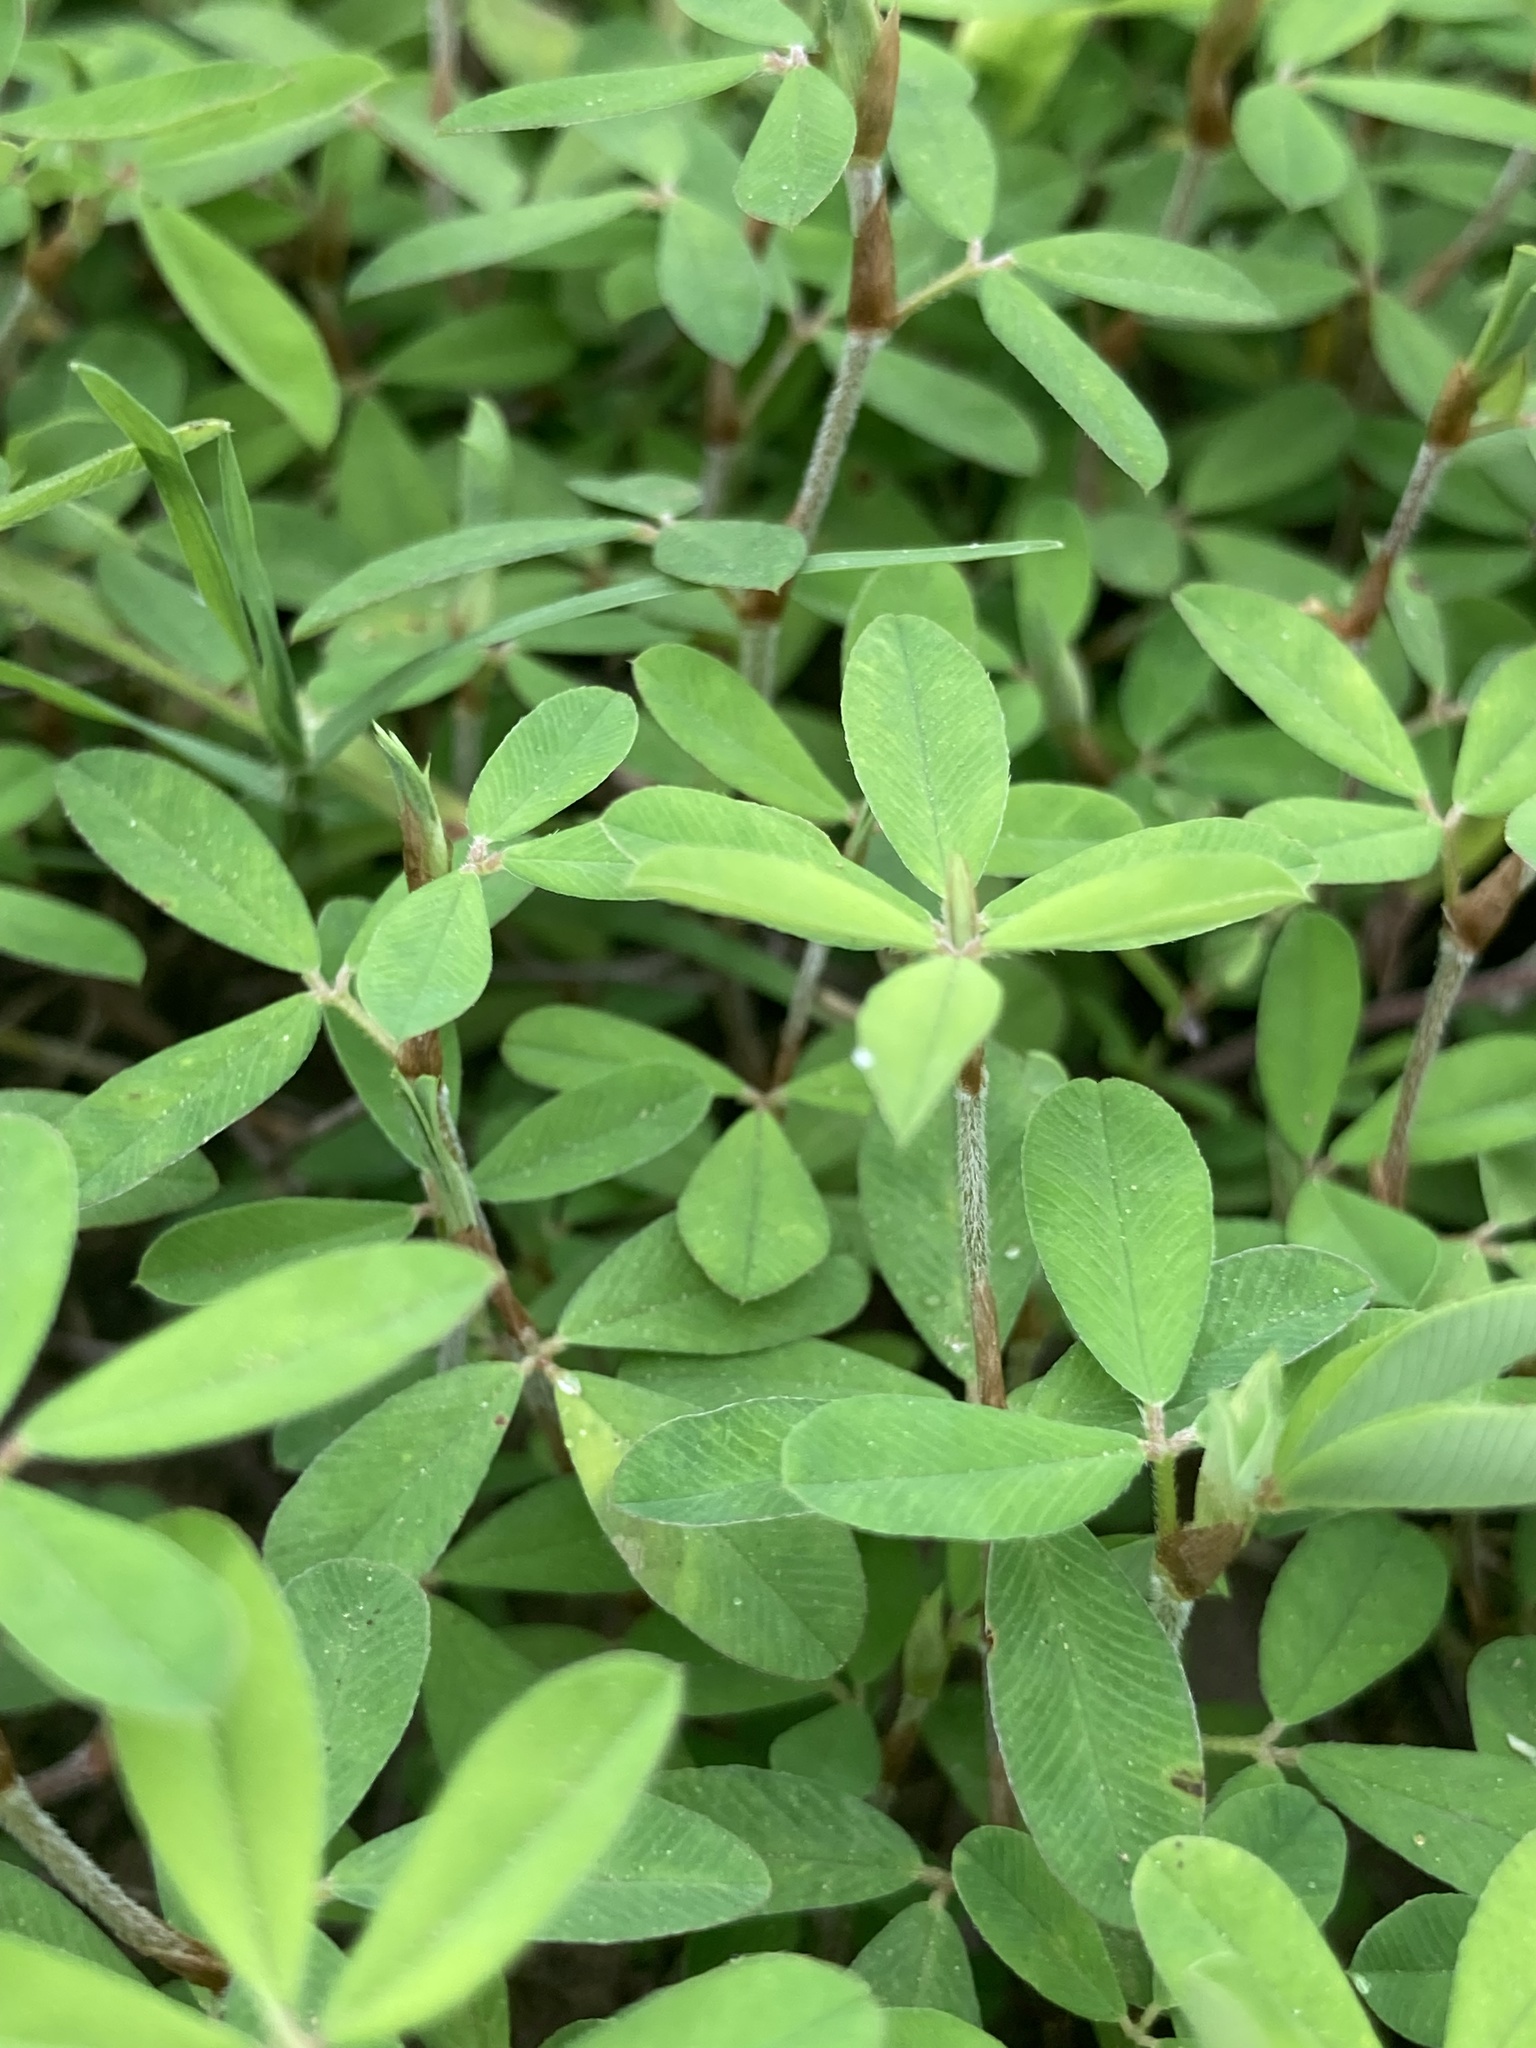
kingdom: Plantae
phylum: Tracheophyta
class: Magnoliopsida
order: Fabales
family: Fabaceae
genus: Kummerowia
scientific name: Kummerowia striata
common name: Japanese clover
